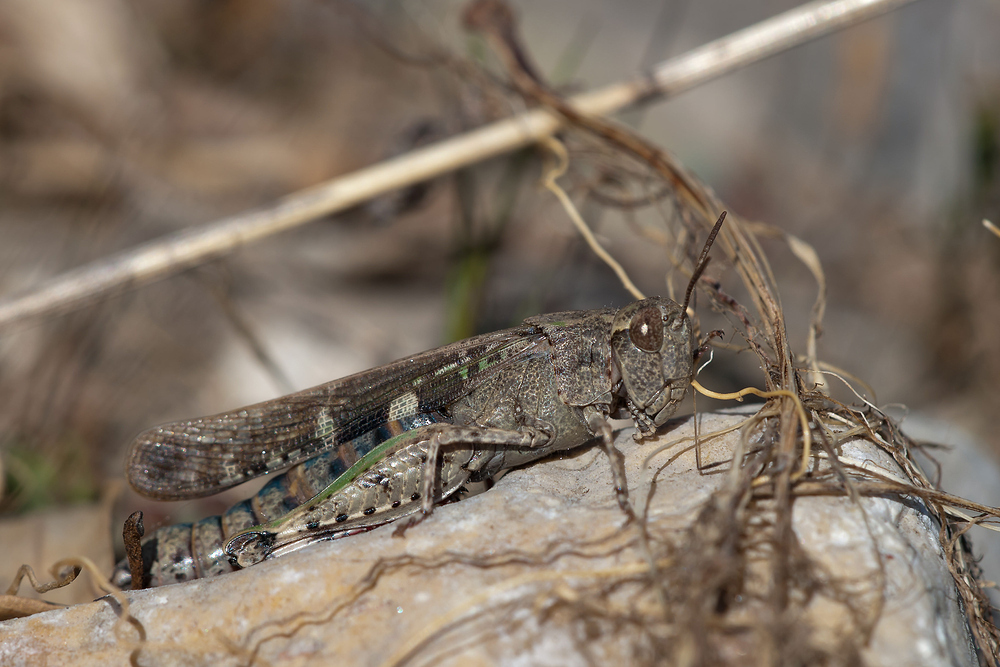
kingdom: Animalia
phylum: Arthropoda
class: Insecta
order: Orthoptera
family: Acrididae
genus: Aiolopus
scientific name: Aiolopus strepens
